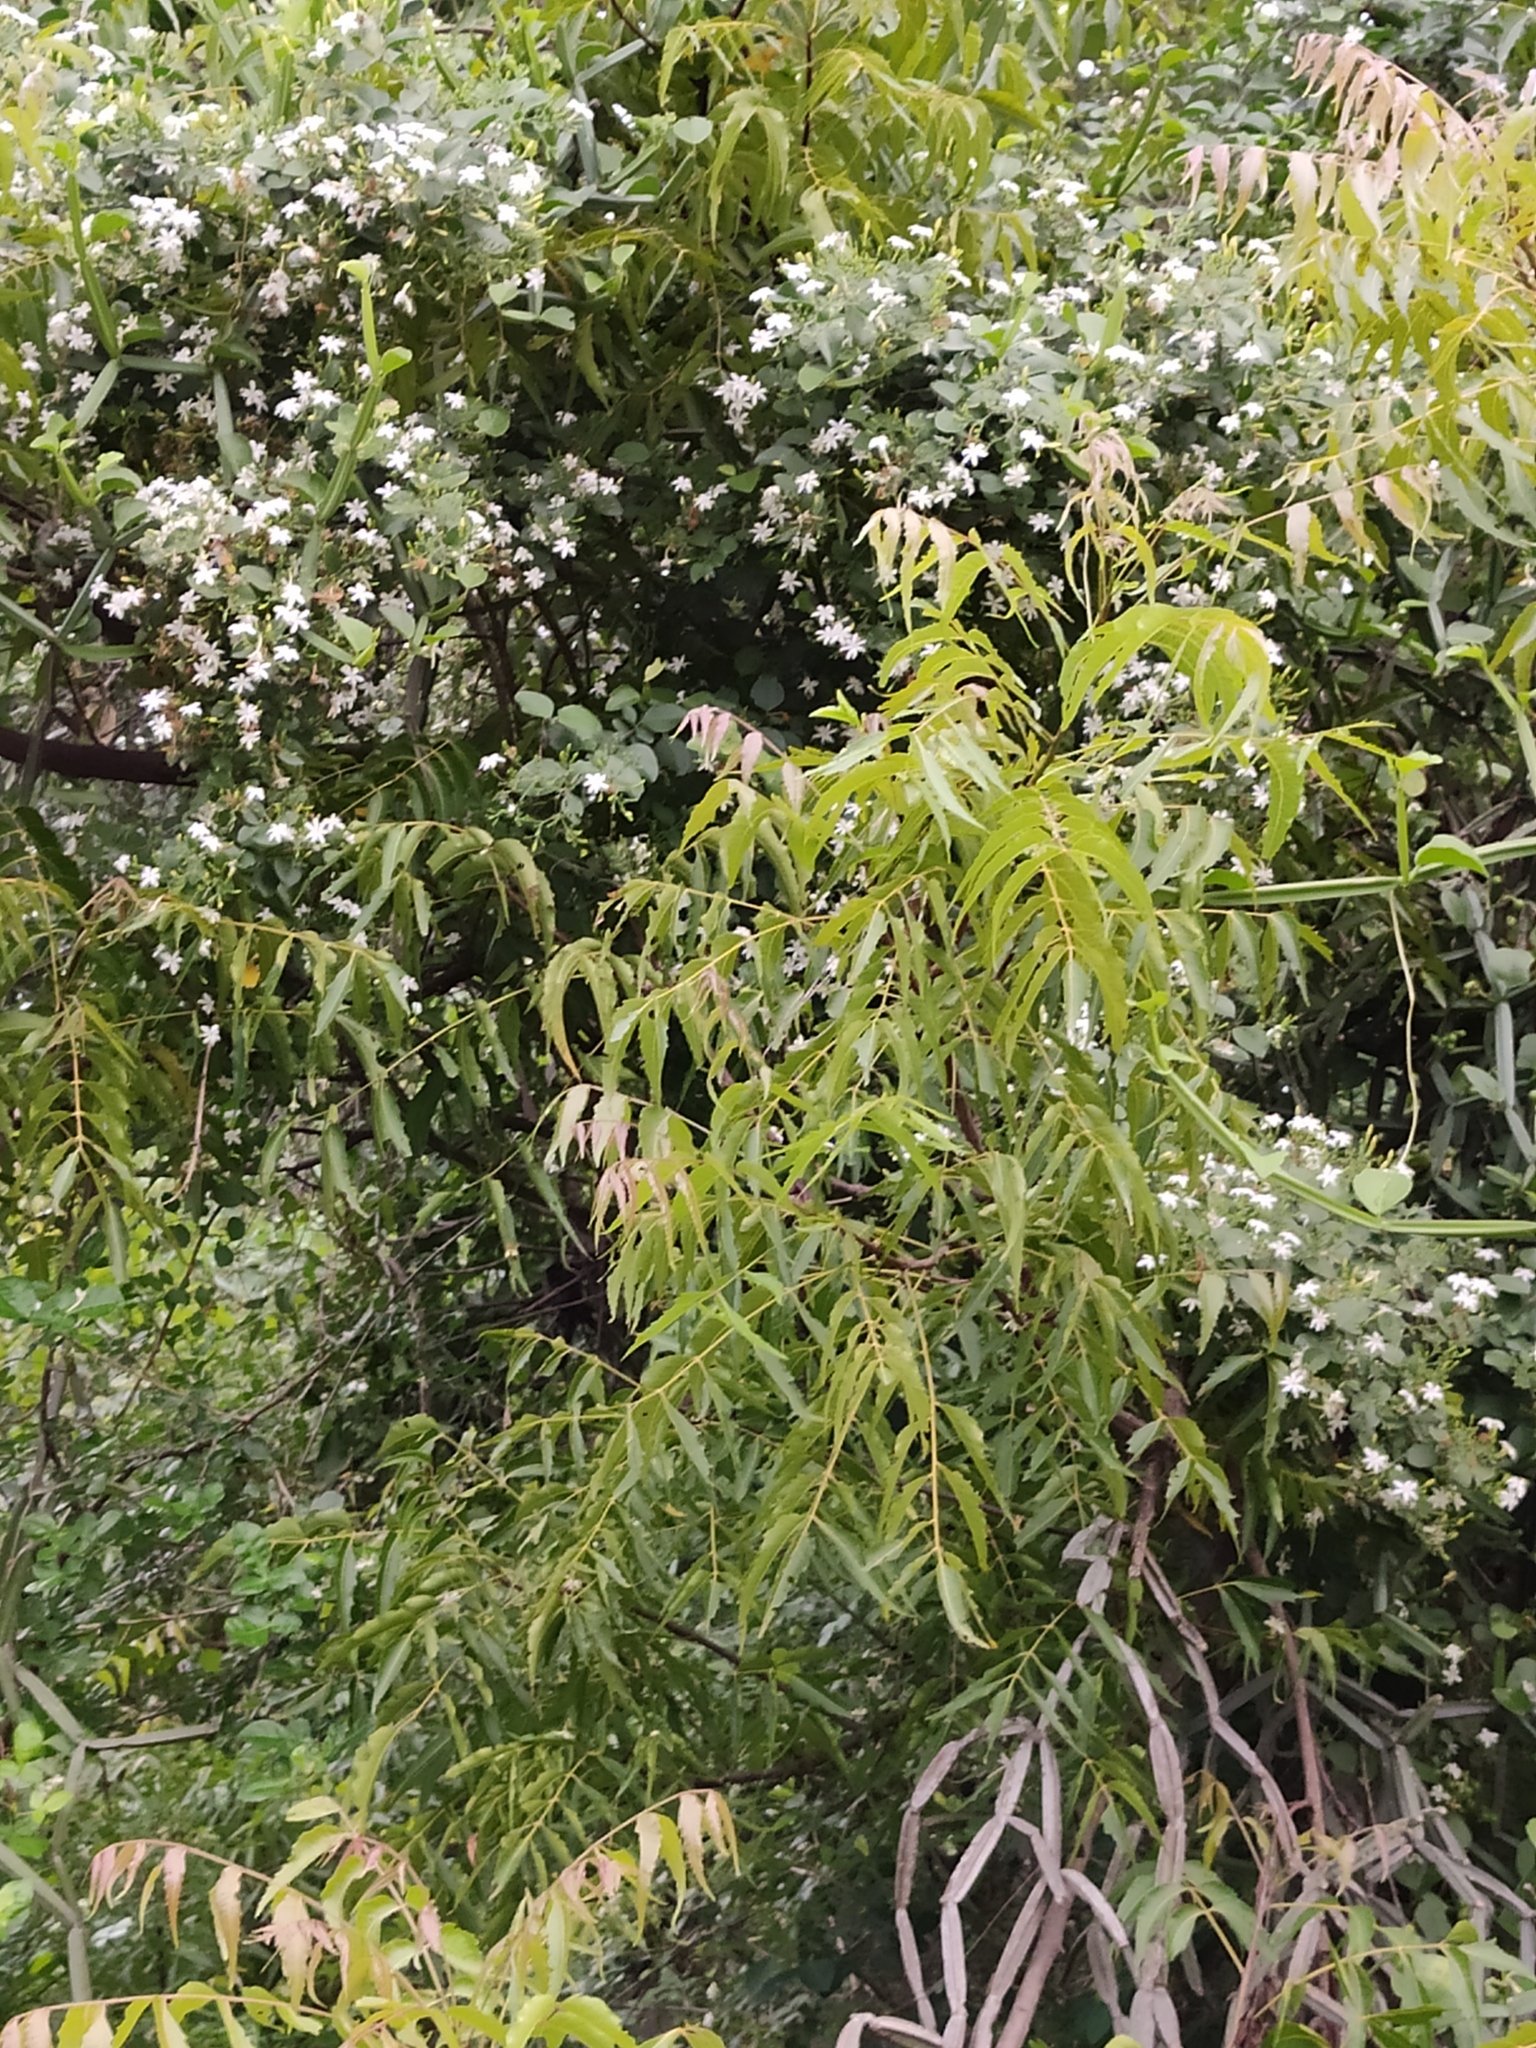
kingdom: Plantae
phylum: Tracheophyta
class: Magnoliopsida
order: Sapindales
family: Meliaceae
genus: Azadirachta
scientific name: Azadirachta indica
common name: Neem
